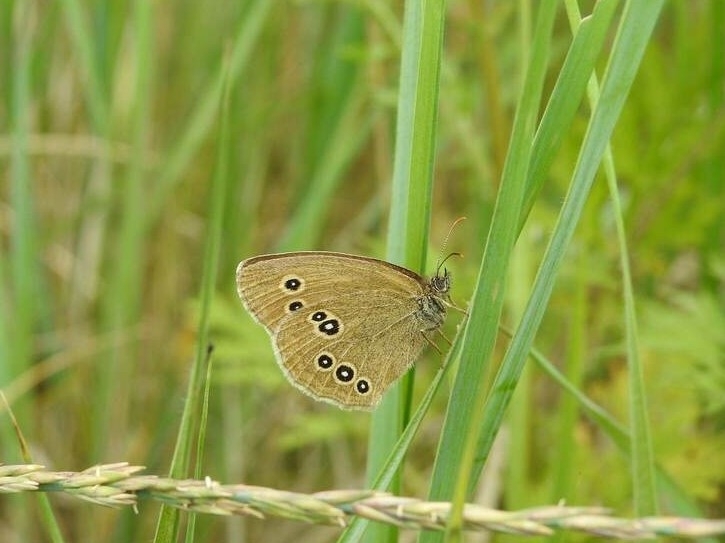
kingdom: Animalia
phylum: Arthropoda
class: Insecta
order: Lepidoptera
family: Nymphalidae
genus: Aphantopus
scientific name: Aphantopus hyperantus
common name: Ringlet
